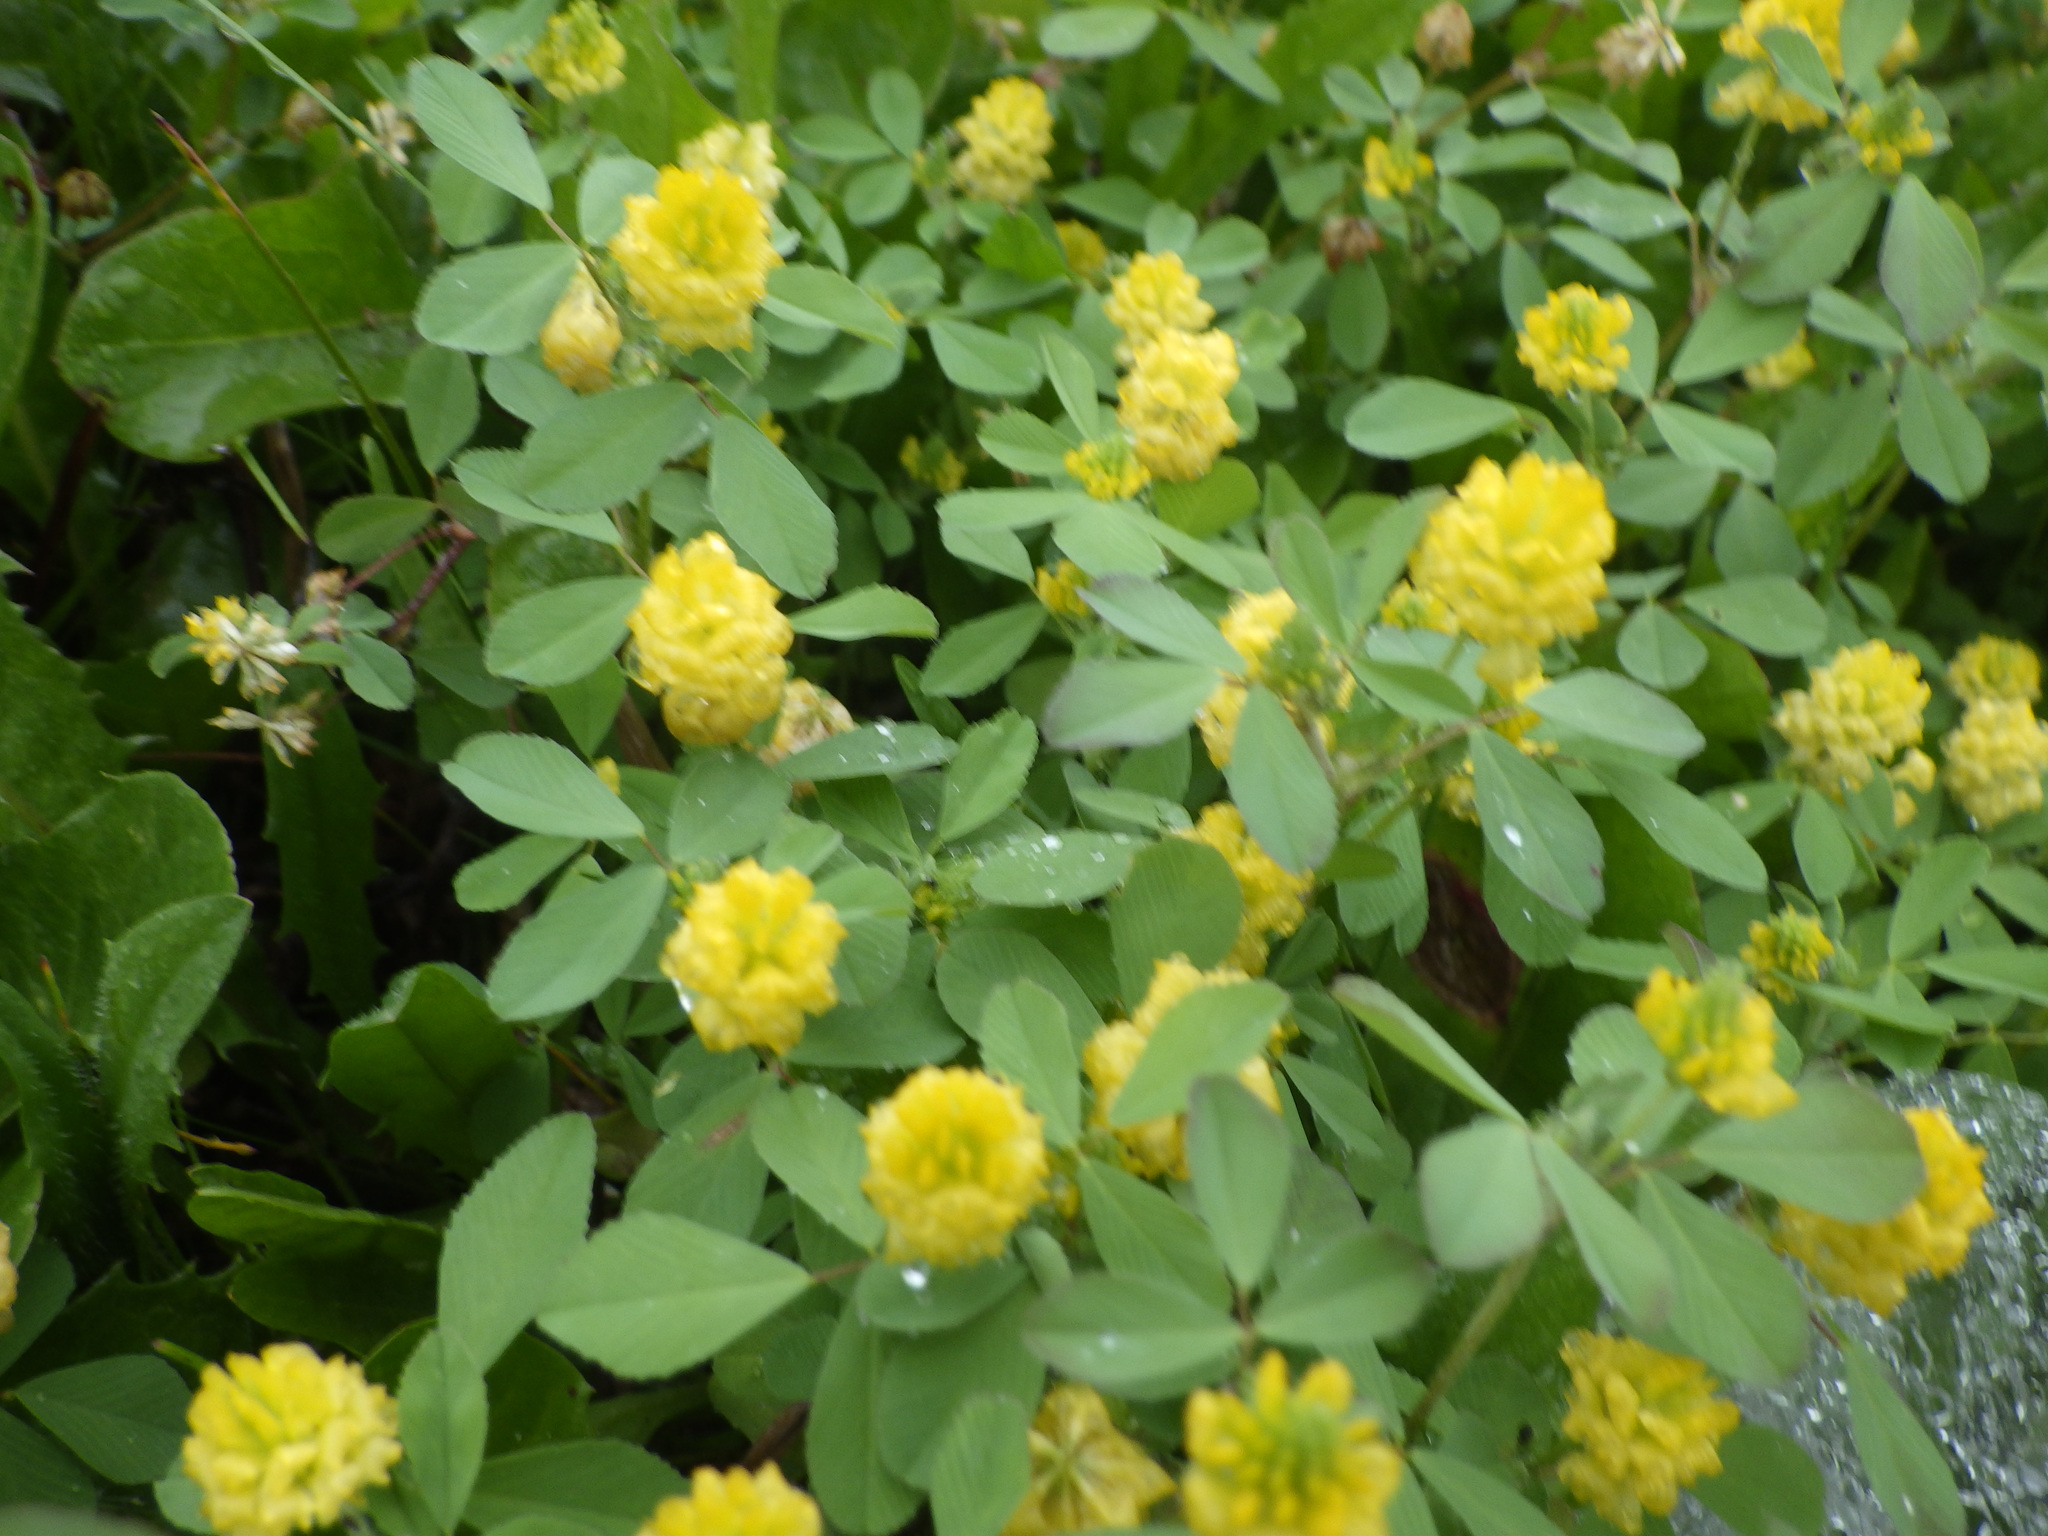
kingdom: Plantae
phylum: Tracheophyta
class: Magnoliopsida
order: Fabales
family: Fabaceae
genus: Trifolium
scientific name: Trifolium campestre
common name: Field clover
